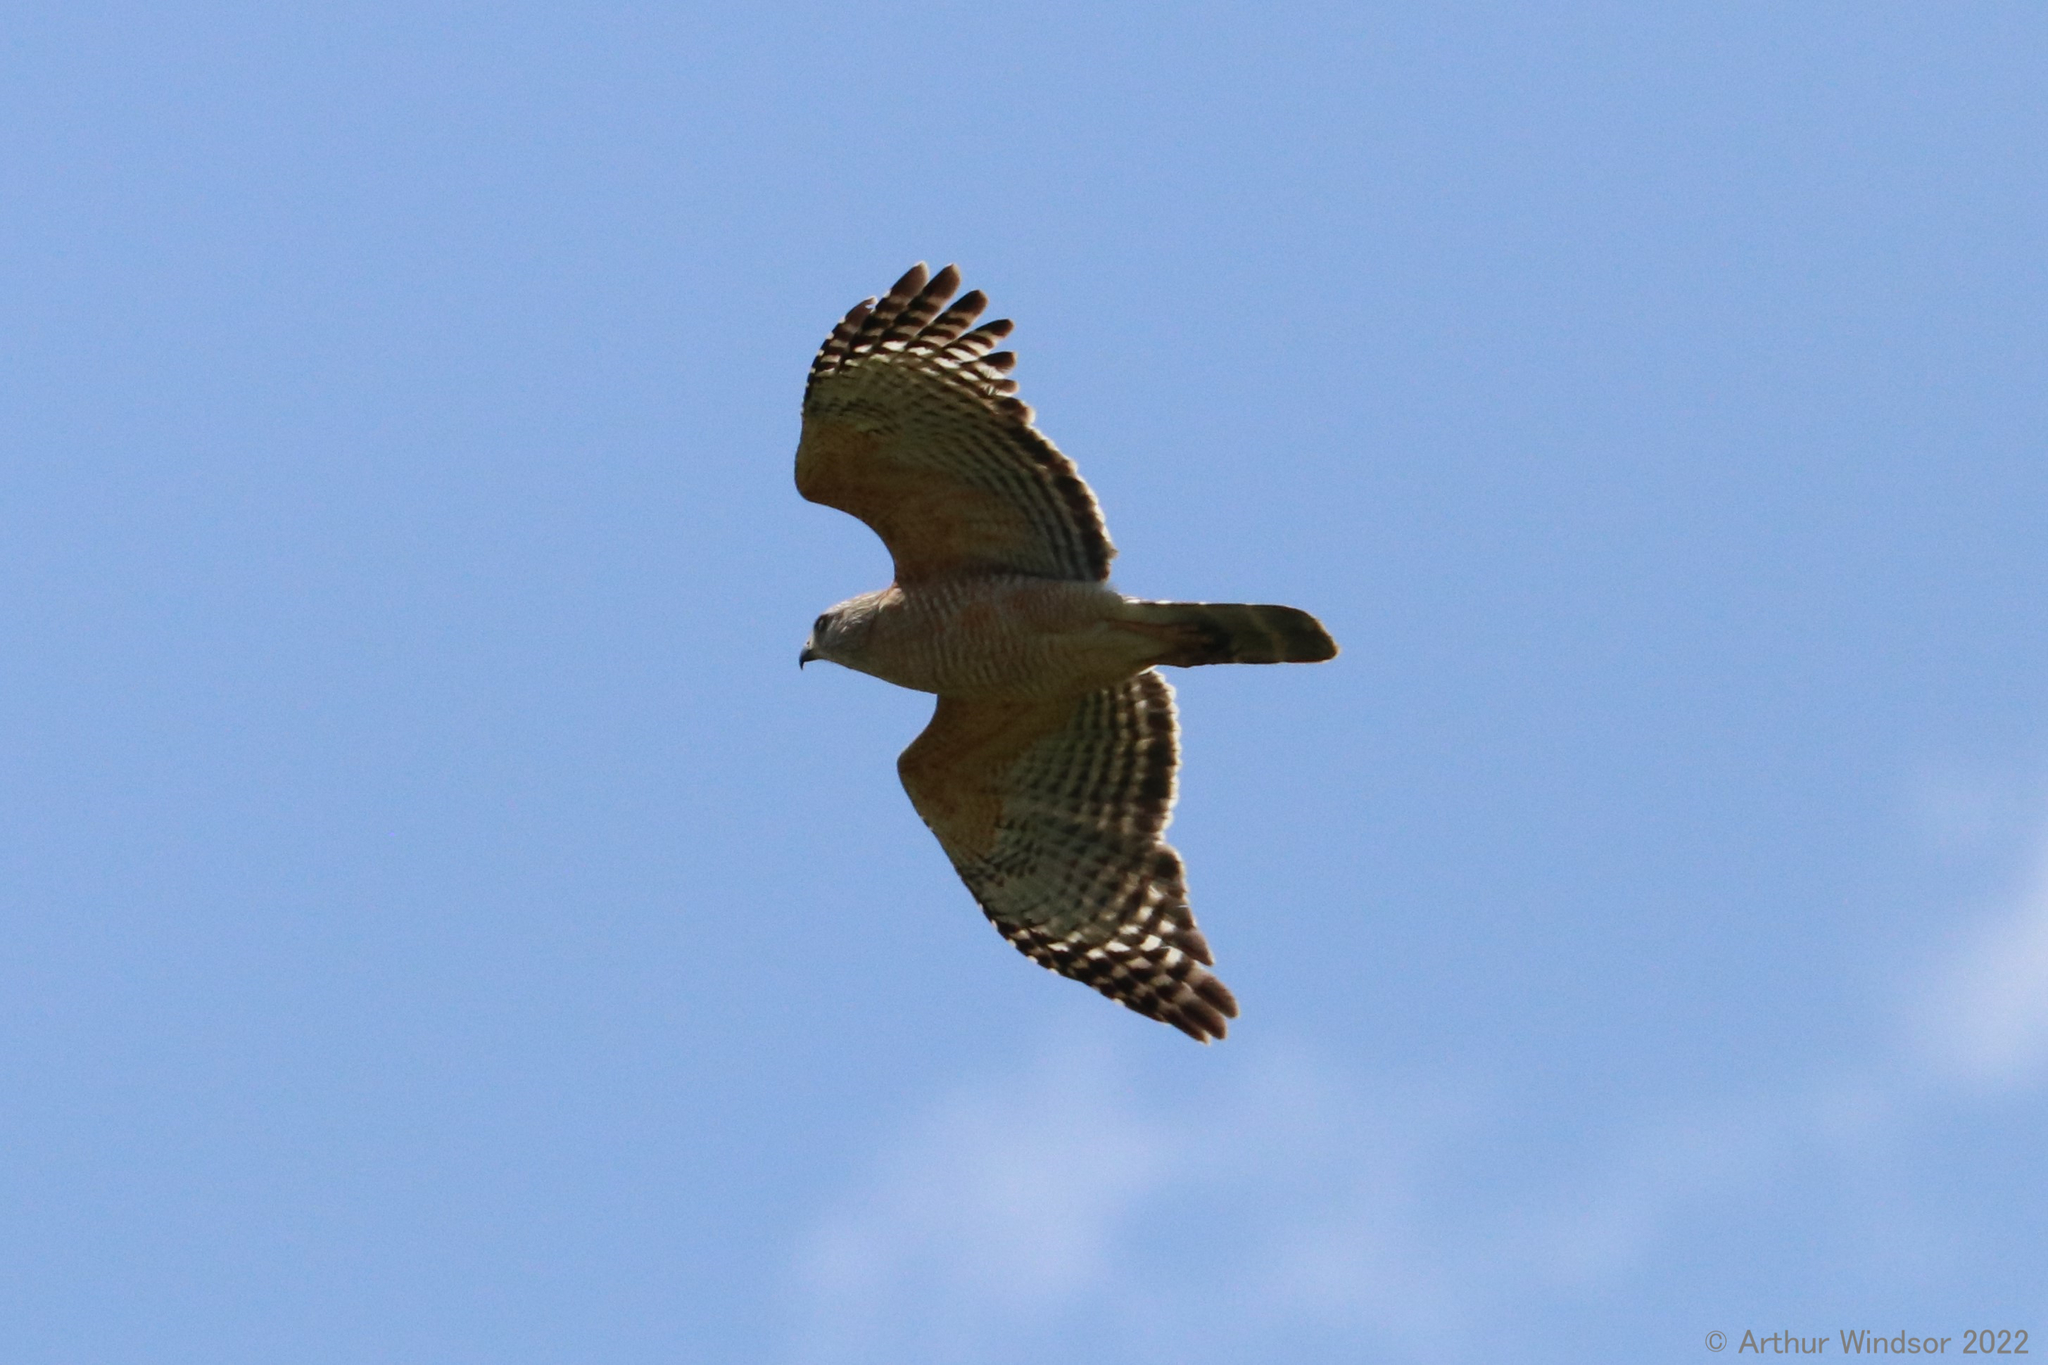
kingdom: Animalia
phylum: Chordata
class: Aves
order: Accipitriformes
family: Accipitridae
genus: Buteo
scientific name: Buteo lineatus
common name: Red-shouldered hawk
